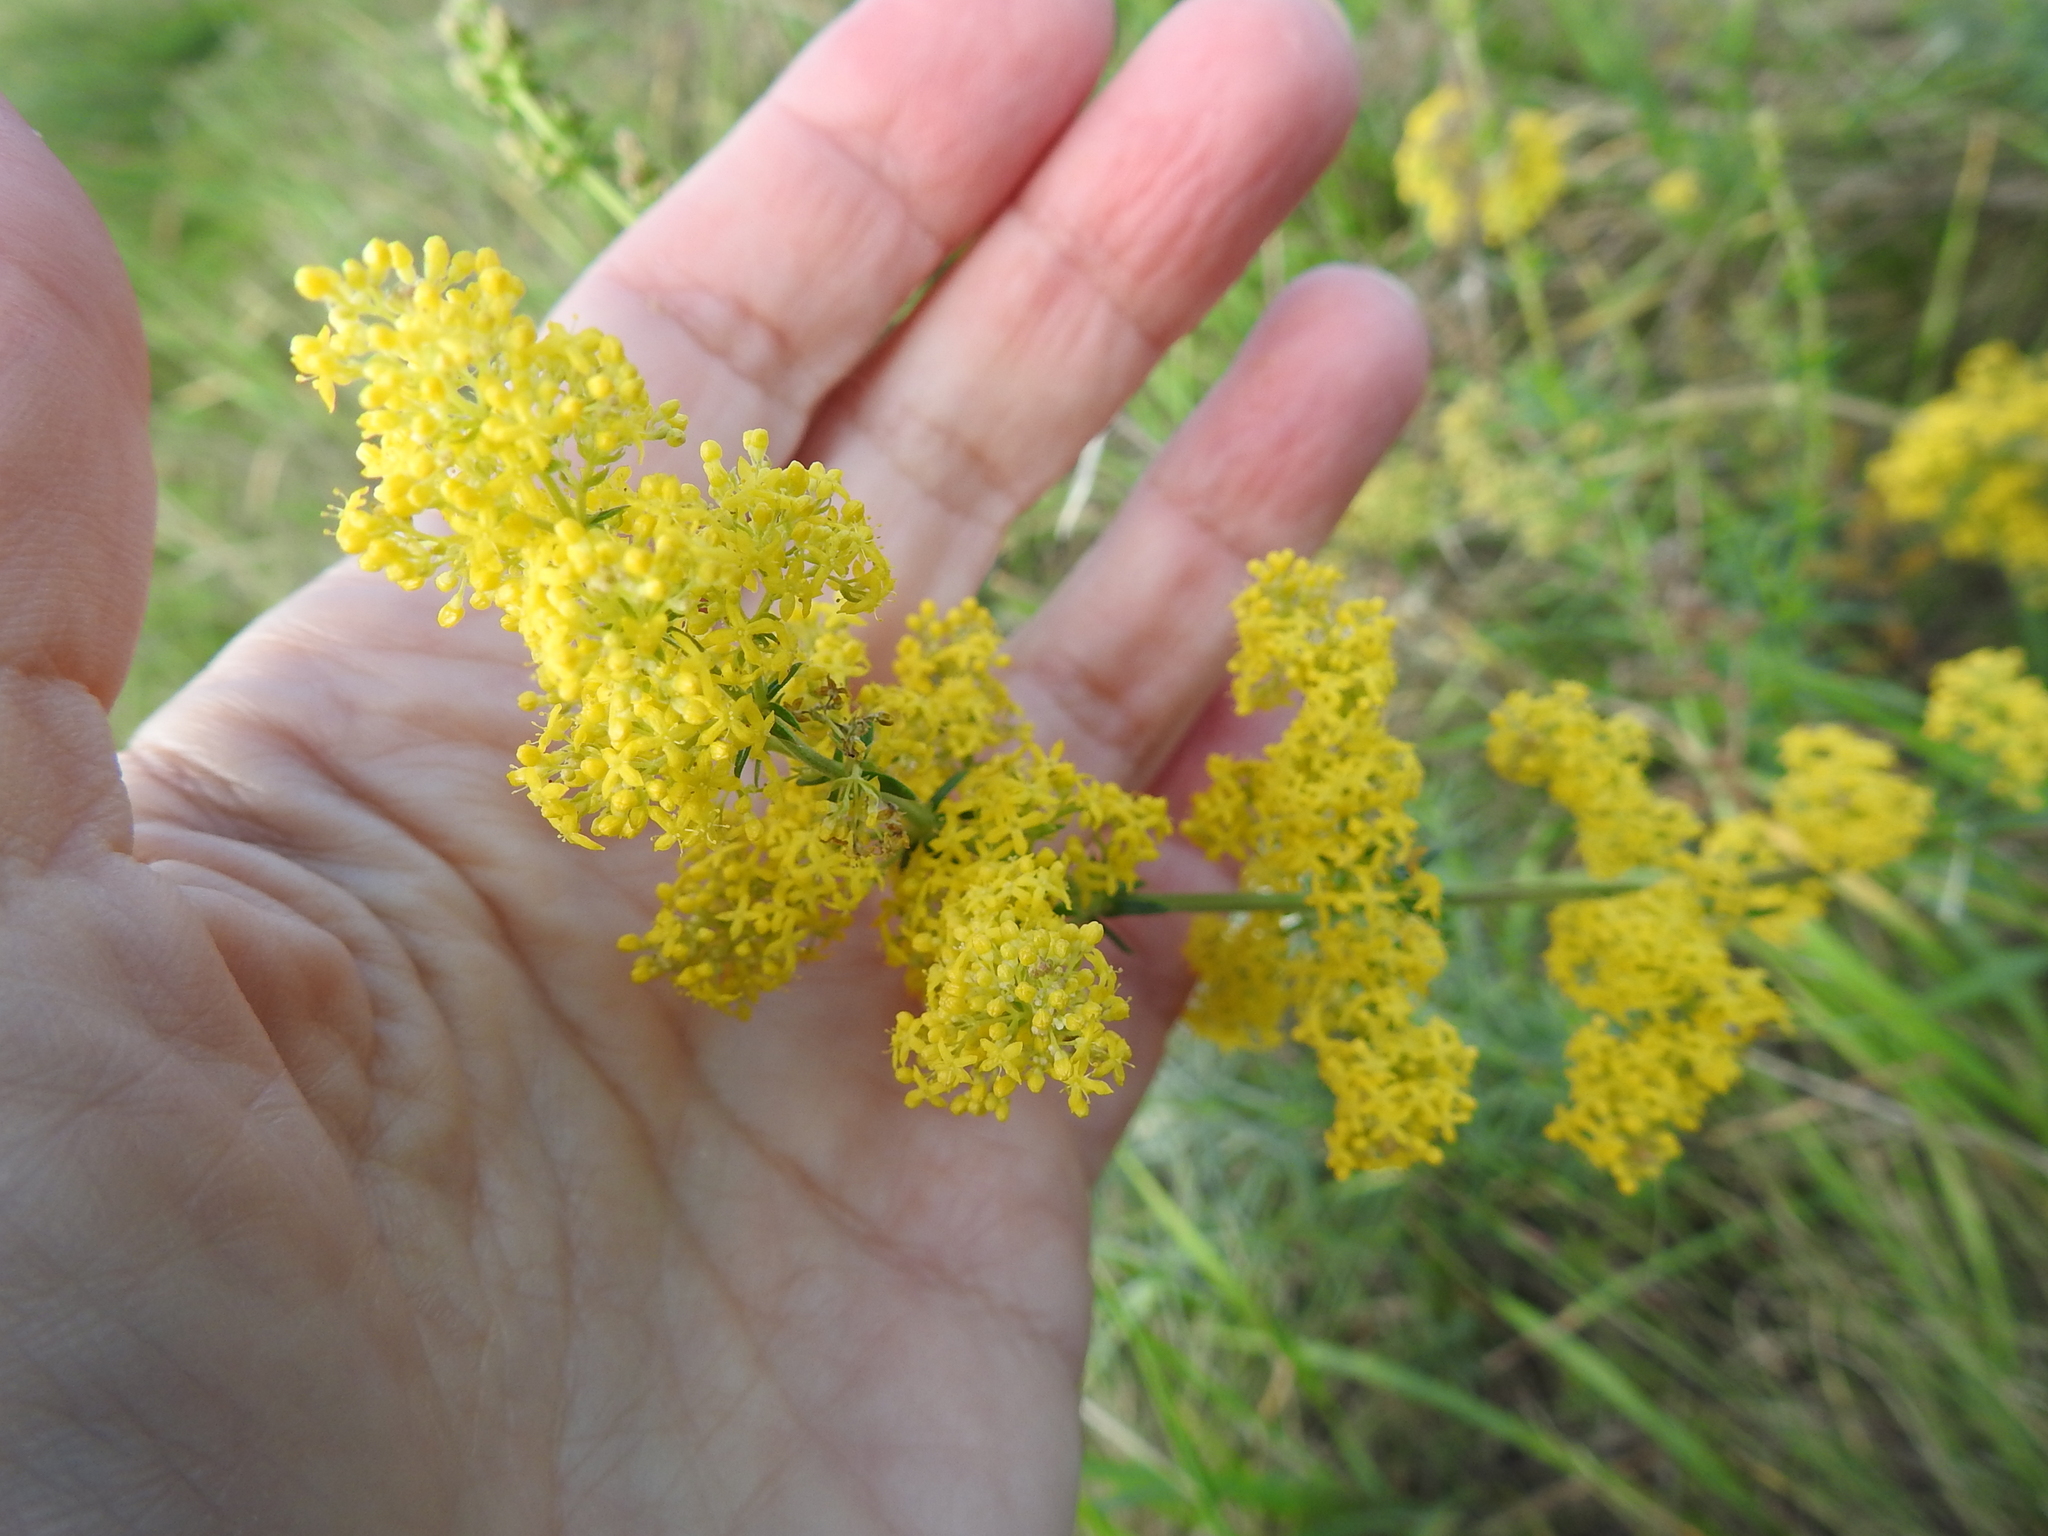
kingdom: Plantae
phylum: Tracheophyta
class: Magnoliopsida
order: Gentianales
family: Rubiaceae
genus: Galium
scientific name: Galium verum
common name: Lady's bedstraw
